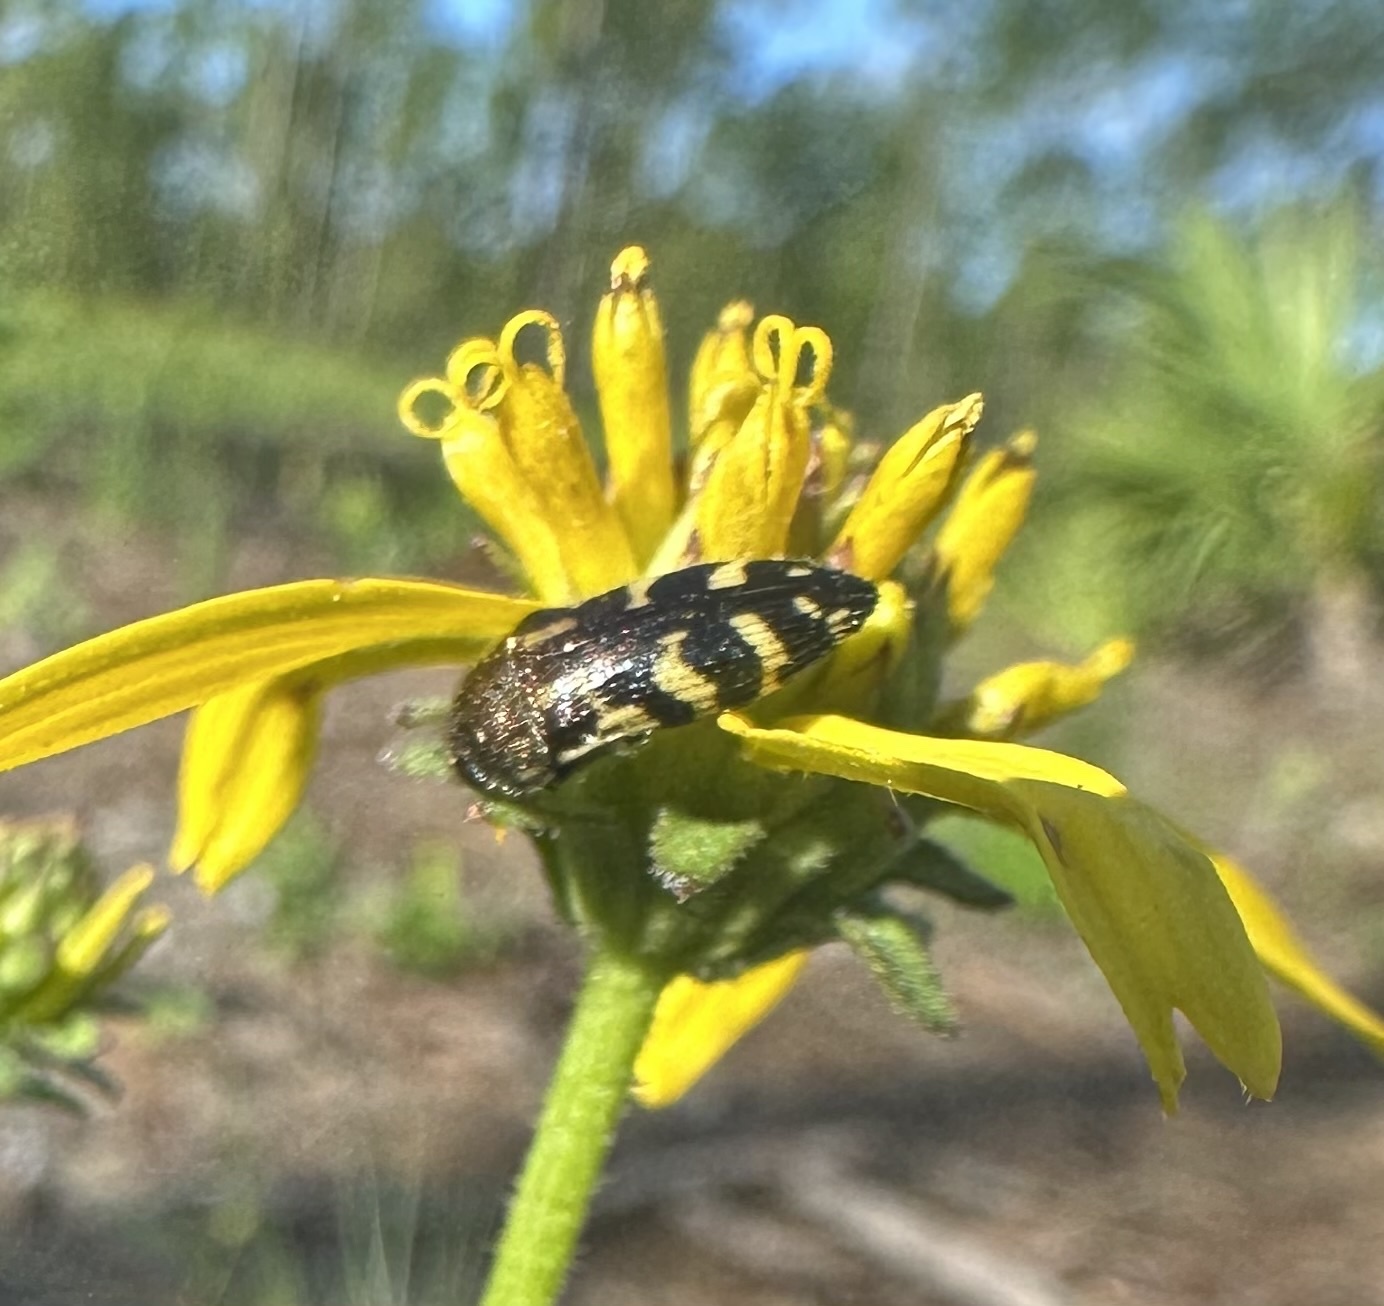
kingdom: Animalia
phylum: Arthropoda
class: Insecta
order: Coleoptera
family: Buprestidae
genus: Acmaeodera
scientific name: Acmaeodera pulchella
